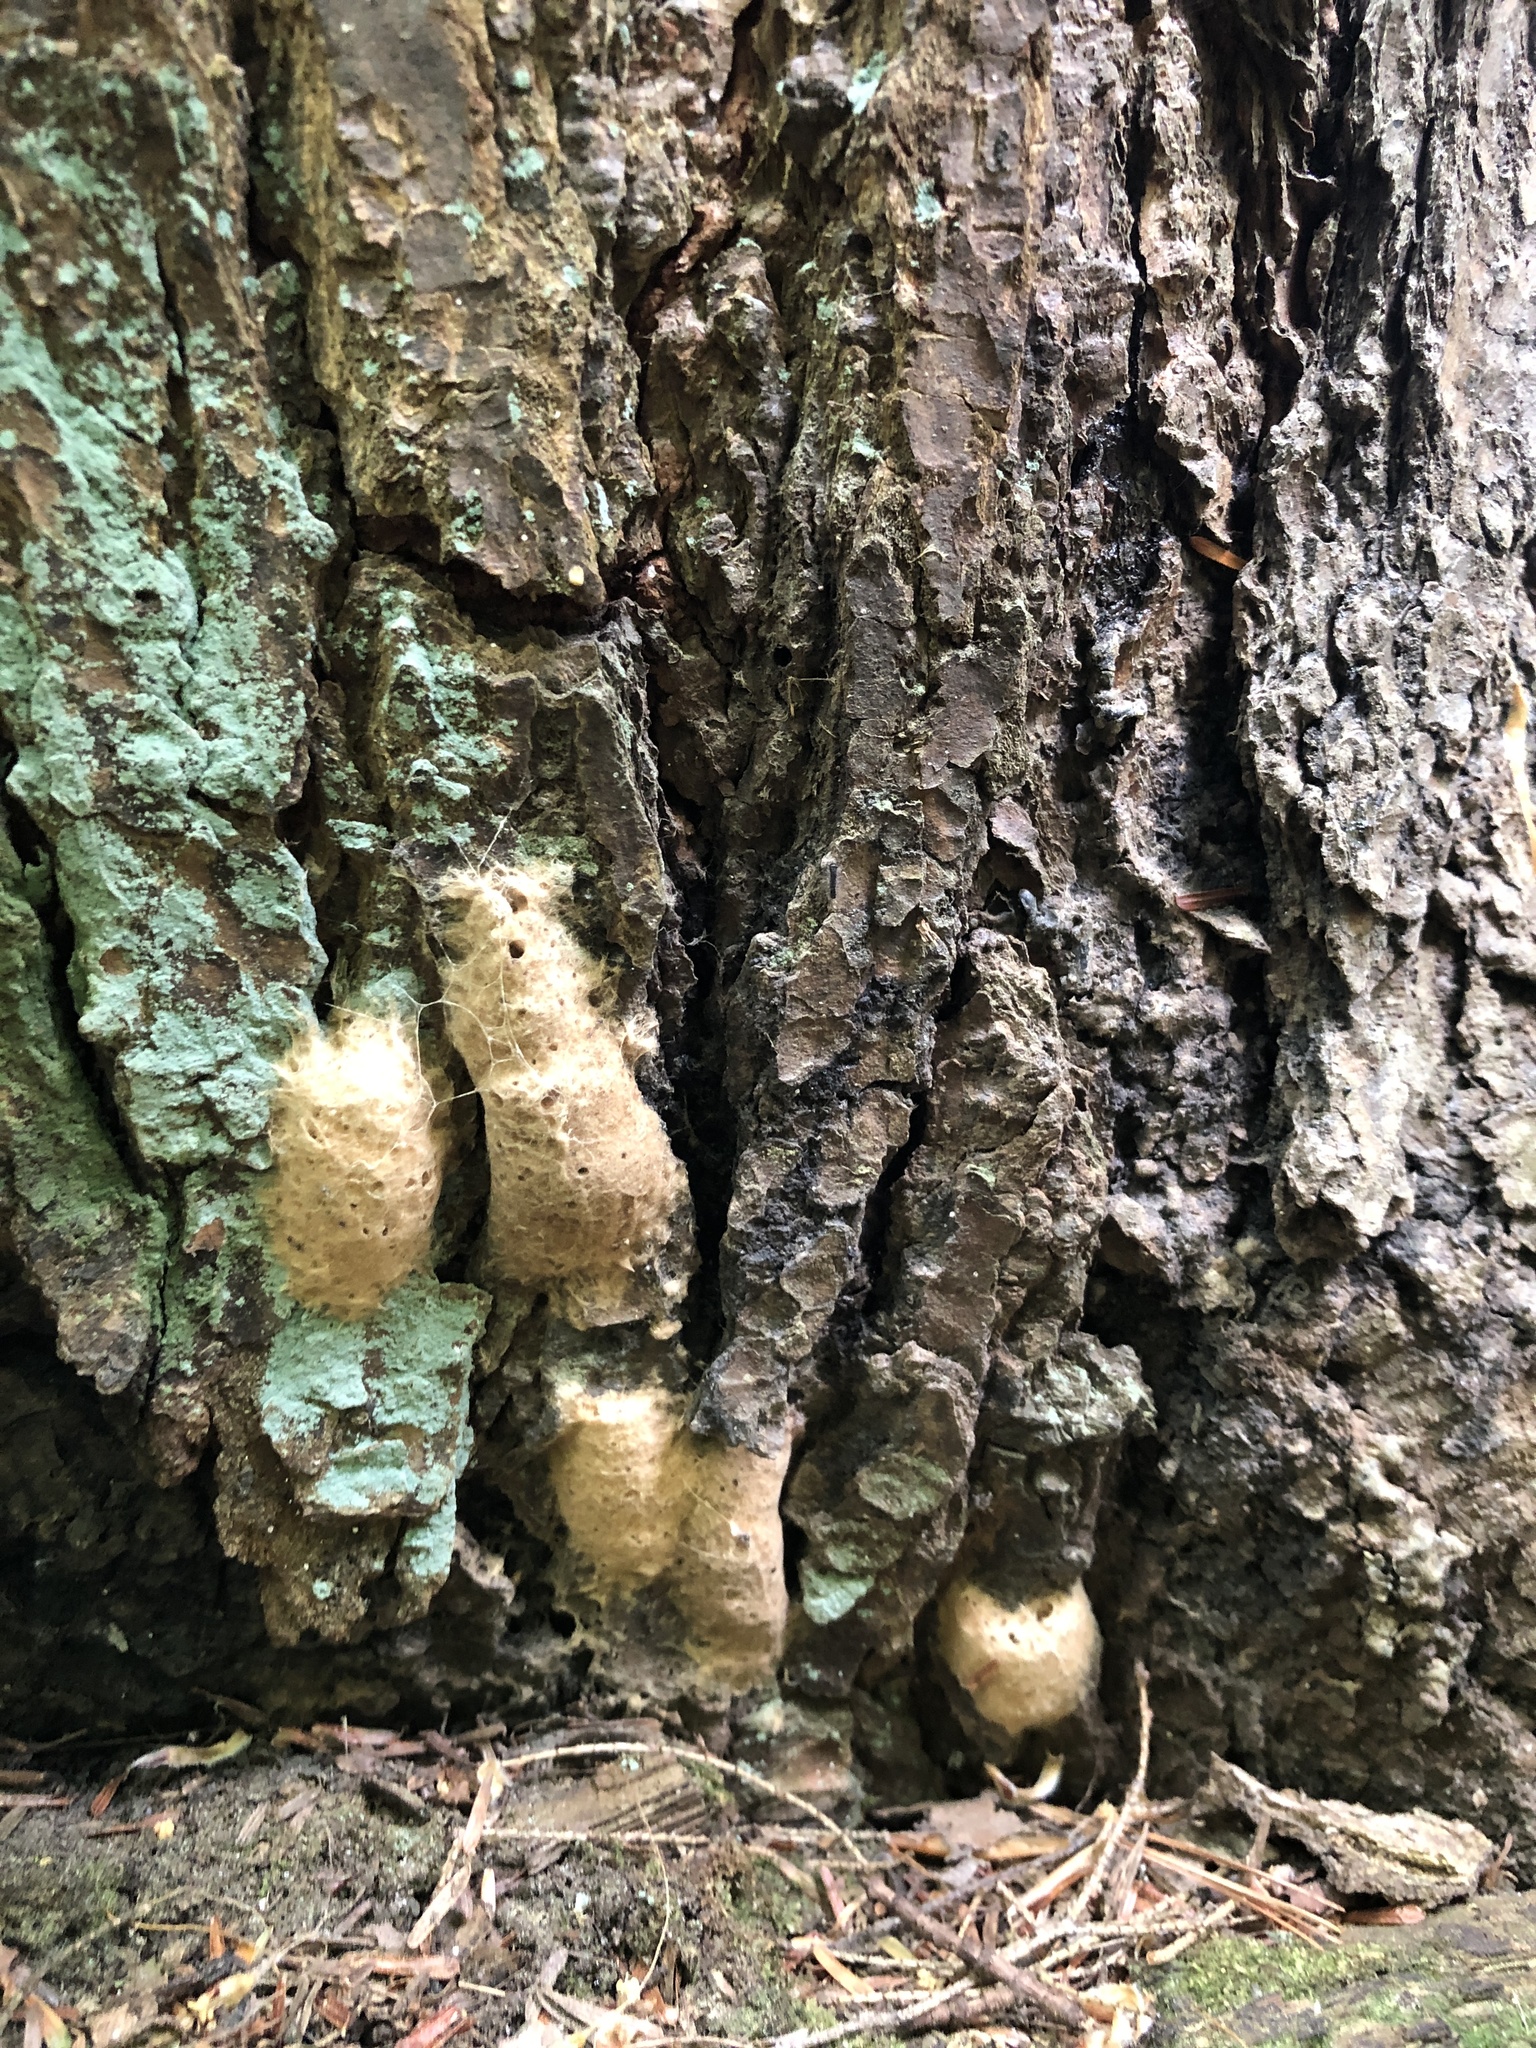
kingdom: Animalia
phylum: Arthropoda
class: Insecta
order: Lepidoptera
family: Erebidae
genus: Lymantria
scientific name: Lymantria dispar
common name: Gypsy moth
